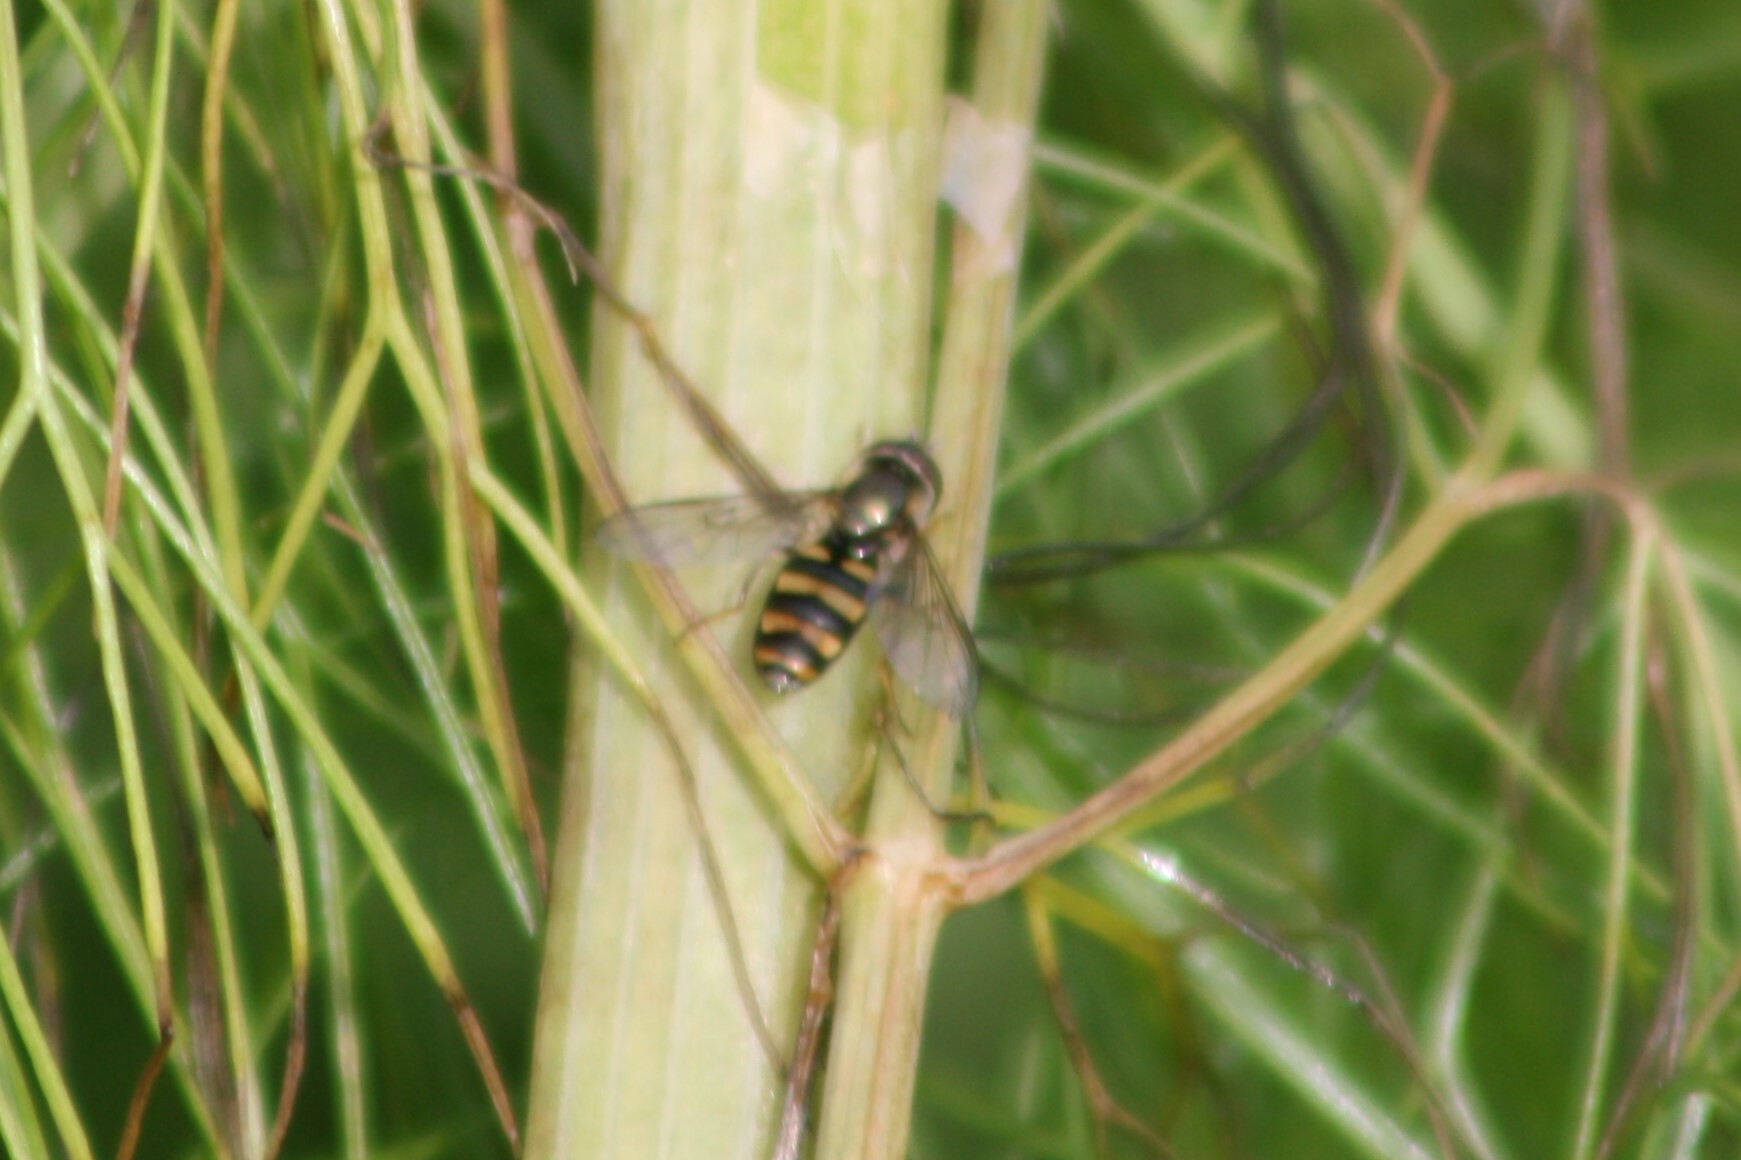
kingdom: Animalia
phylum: Arthropoda
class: Insecta
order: Diptera
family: Syrphidae
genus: Eupeodes
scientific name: Eupeodes
